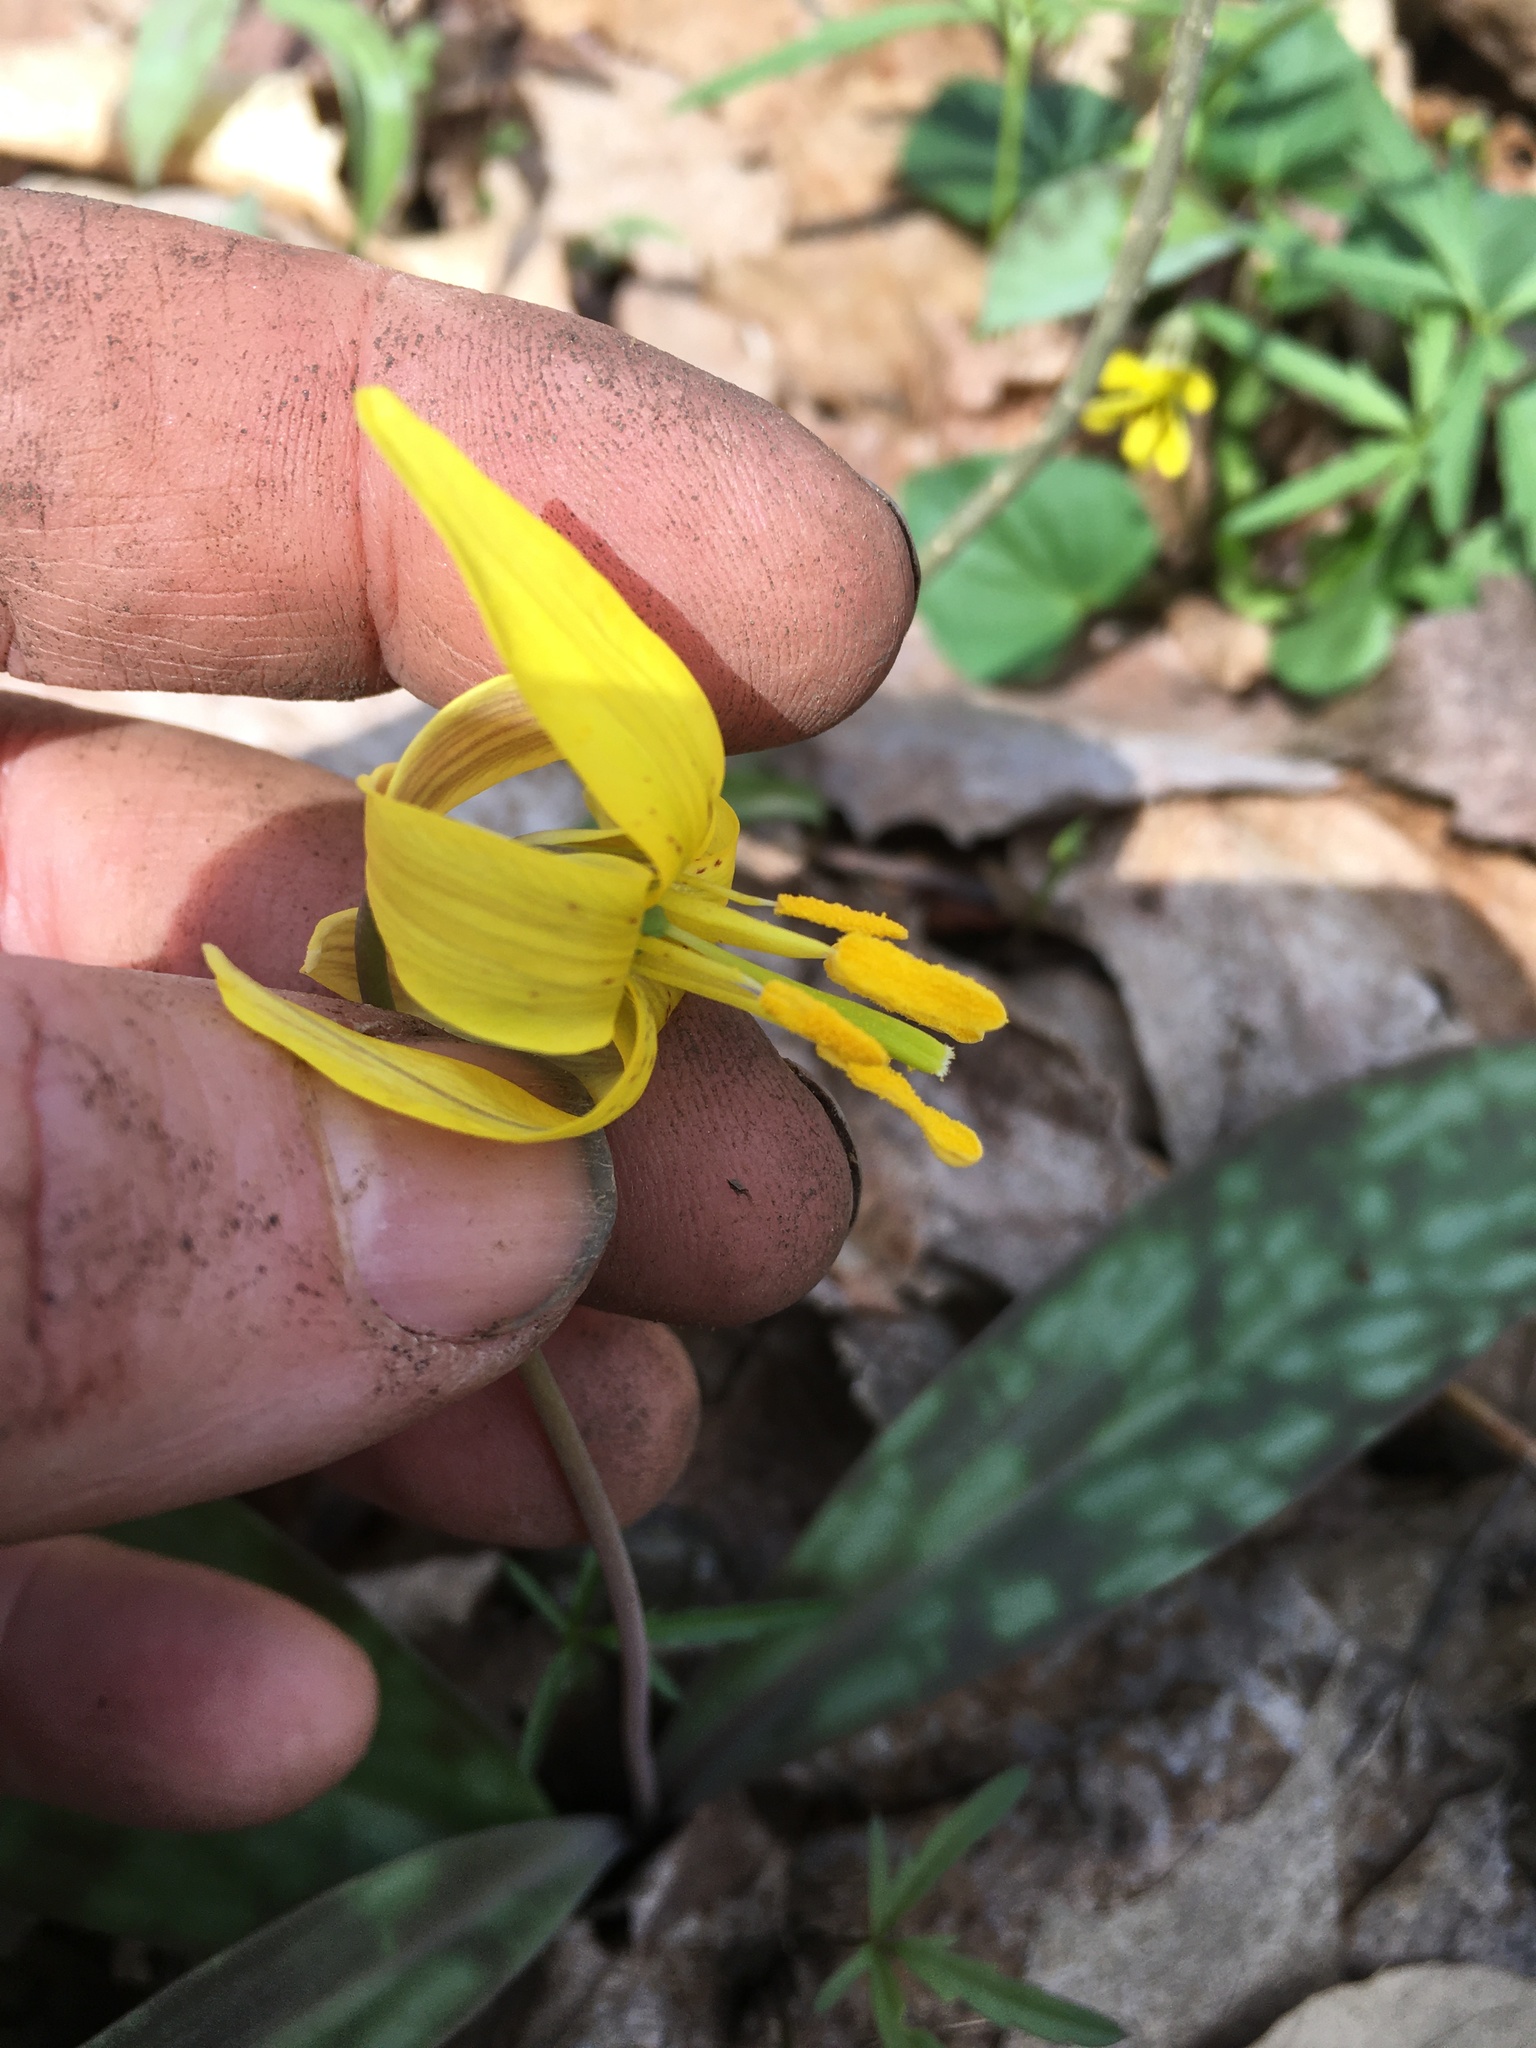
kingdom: Plantae
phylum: Tracheophyta
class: Liliopsida
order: Liliales
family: Liliaceae
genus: Erythronium
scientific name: Erythronium americanum
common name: Yellow adder's-tongue
